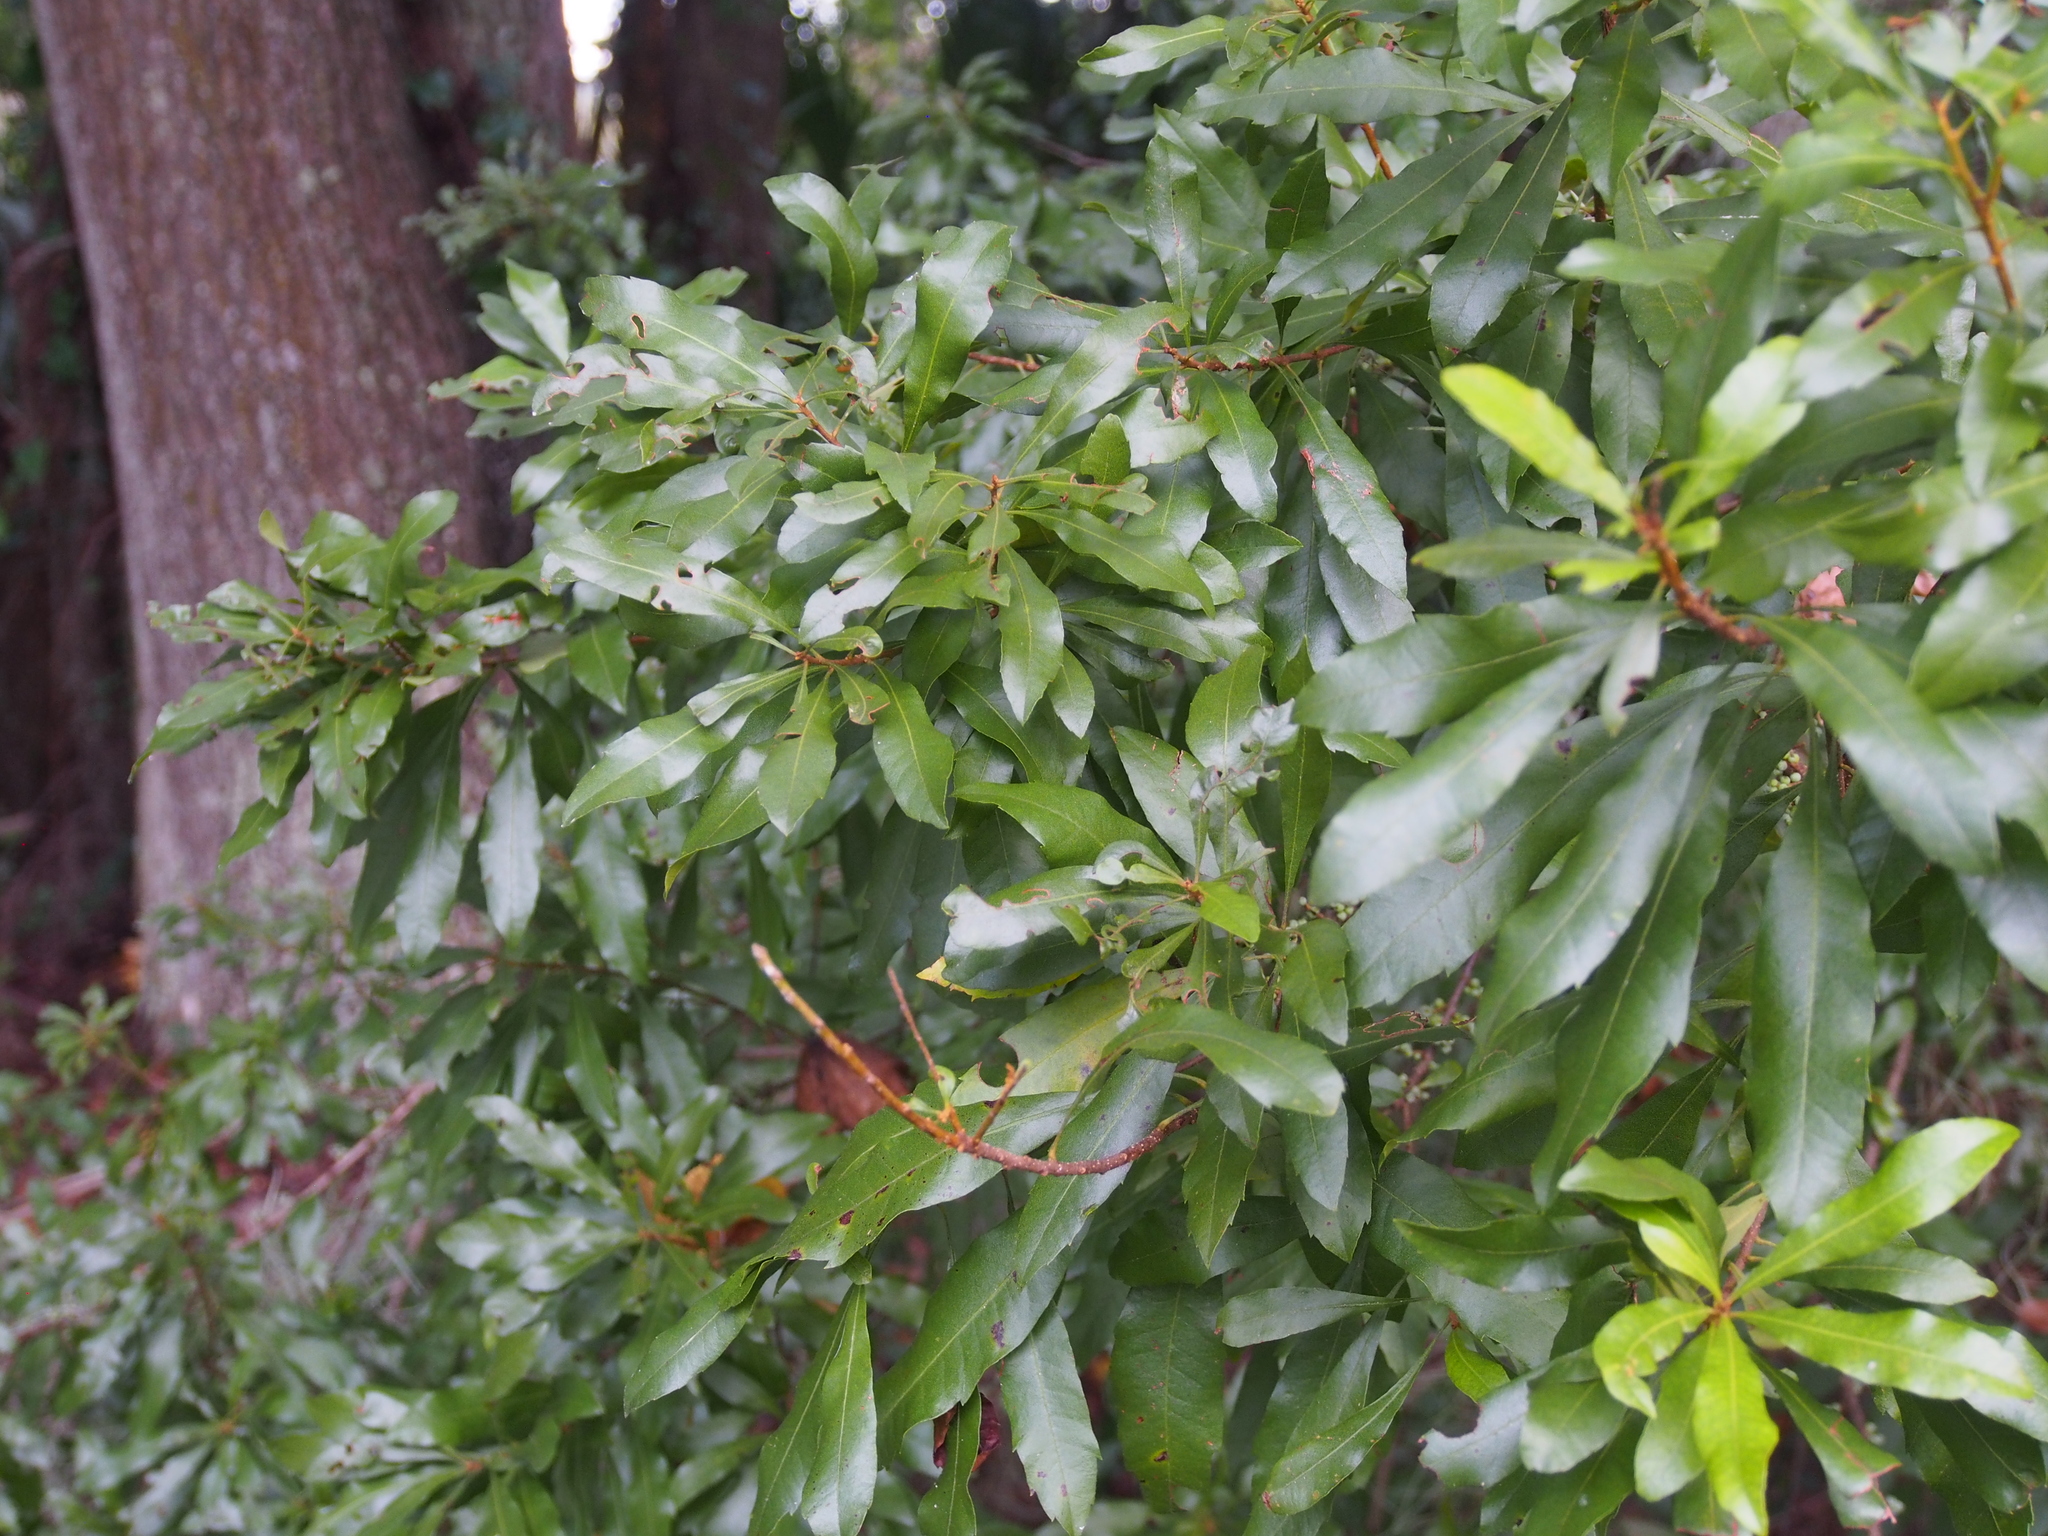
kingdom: Plantae
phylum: Tracheophyta
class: Magnoliopsida
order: Fagales
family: Myricaceae
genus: Morella
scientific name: Morella cerifera
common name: Wax myrtle
